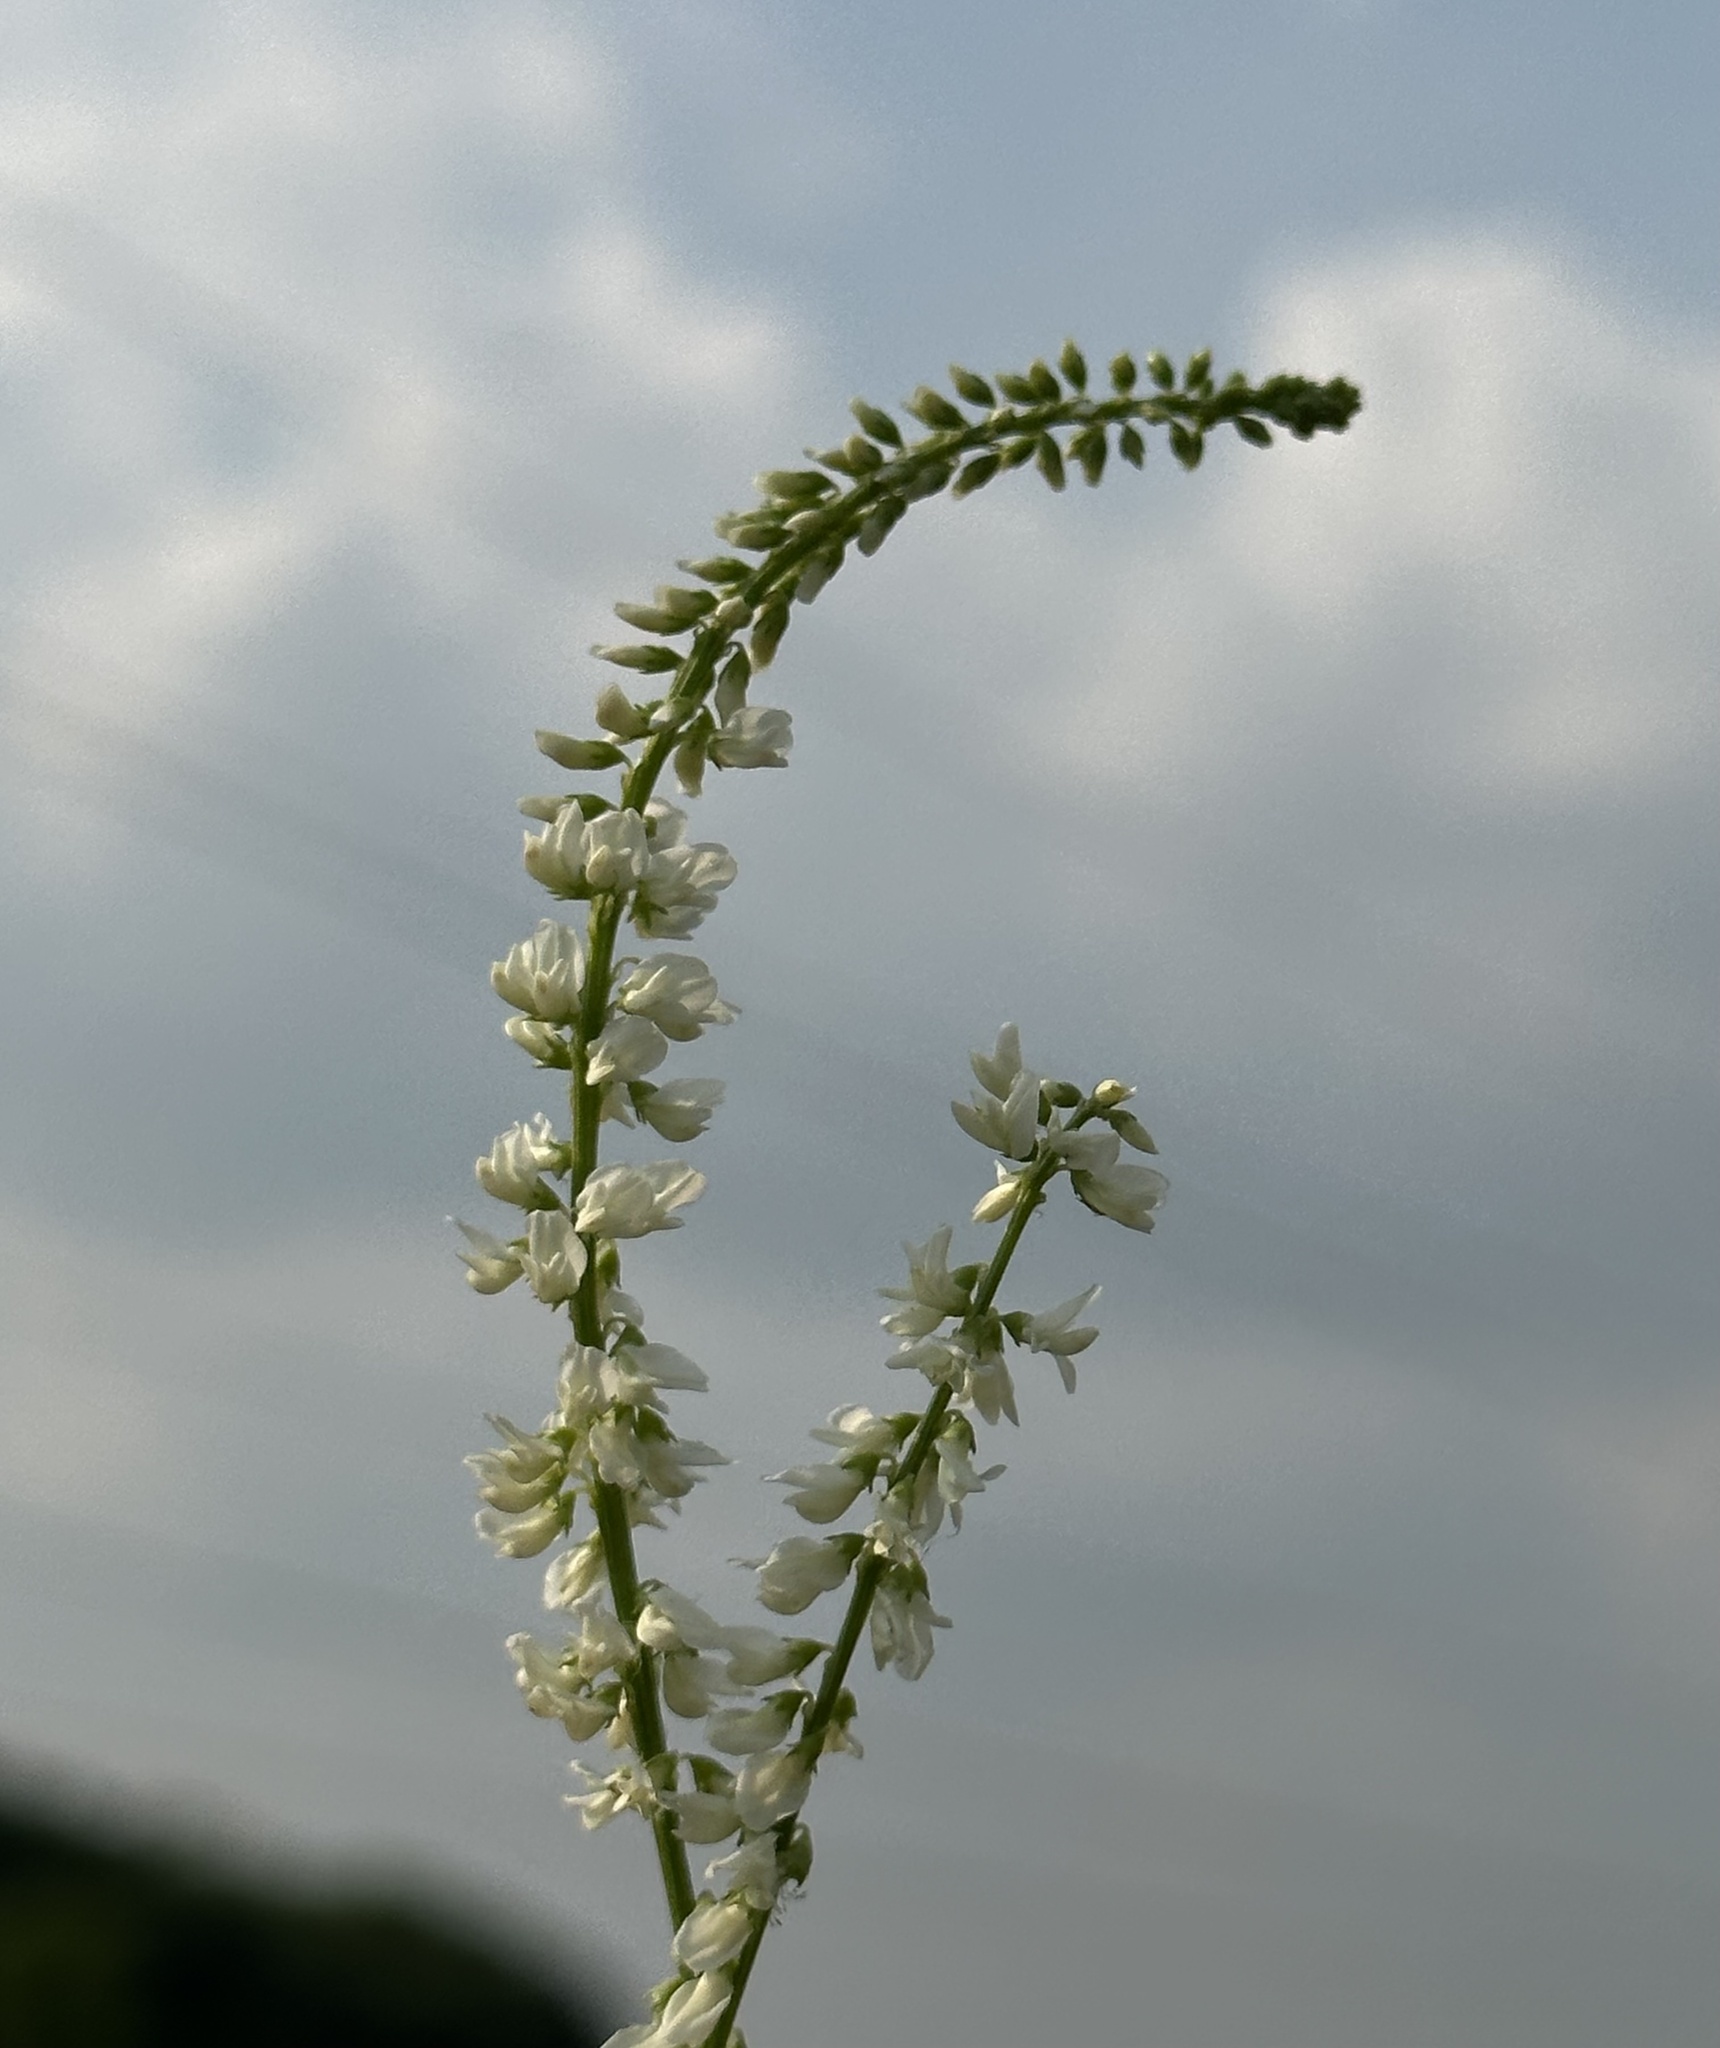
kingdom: Plantae
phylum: Tracheophyta
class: Magnoliopsida
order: Fabales
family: Fabaceae
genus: Melilotus
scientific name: Melilotus albus
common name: White melilot
